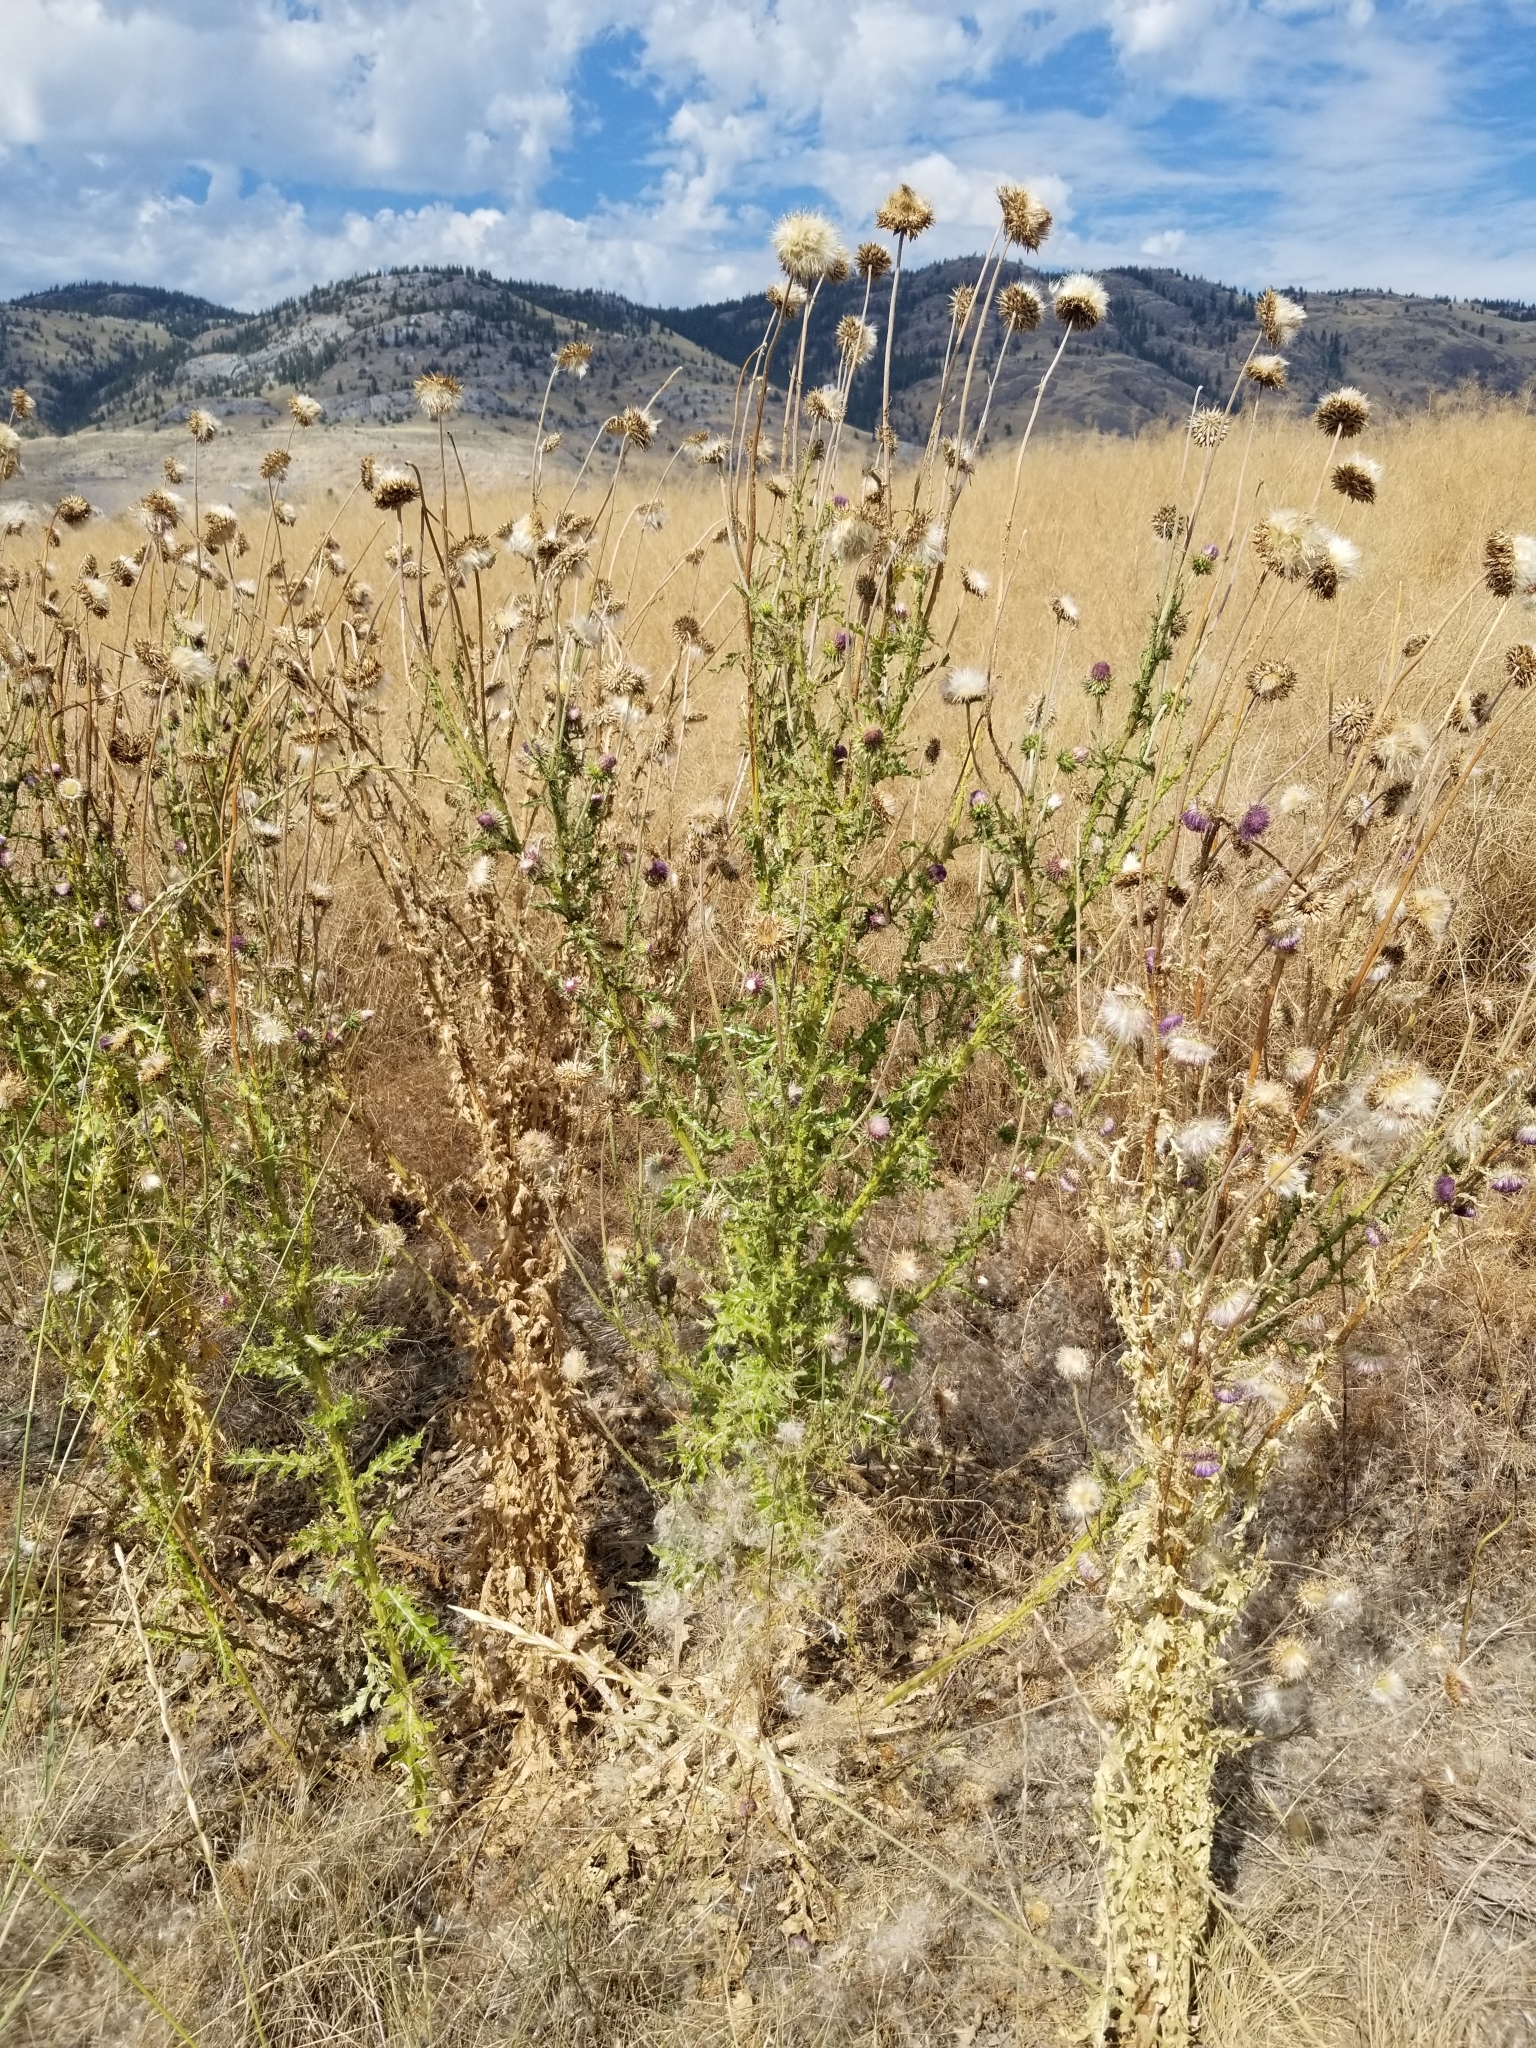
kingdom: Plantae
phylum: Tracheophyta
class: Magnoliopsida
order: Asterales
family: Asteraceae
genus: Carduus
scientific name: Carduus nutans
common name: Musk thistle
